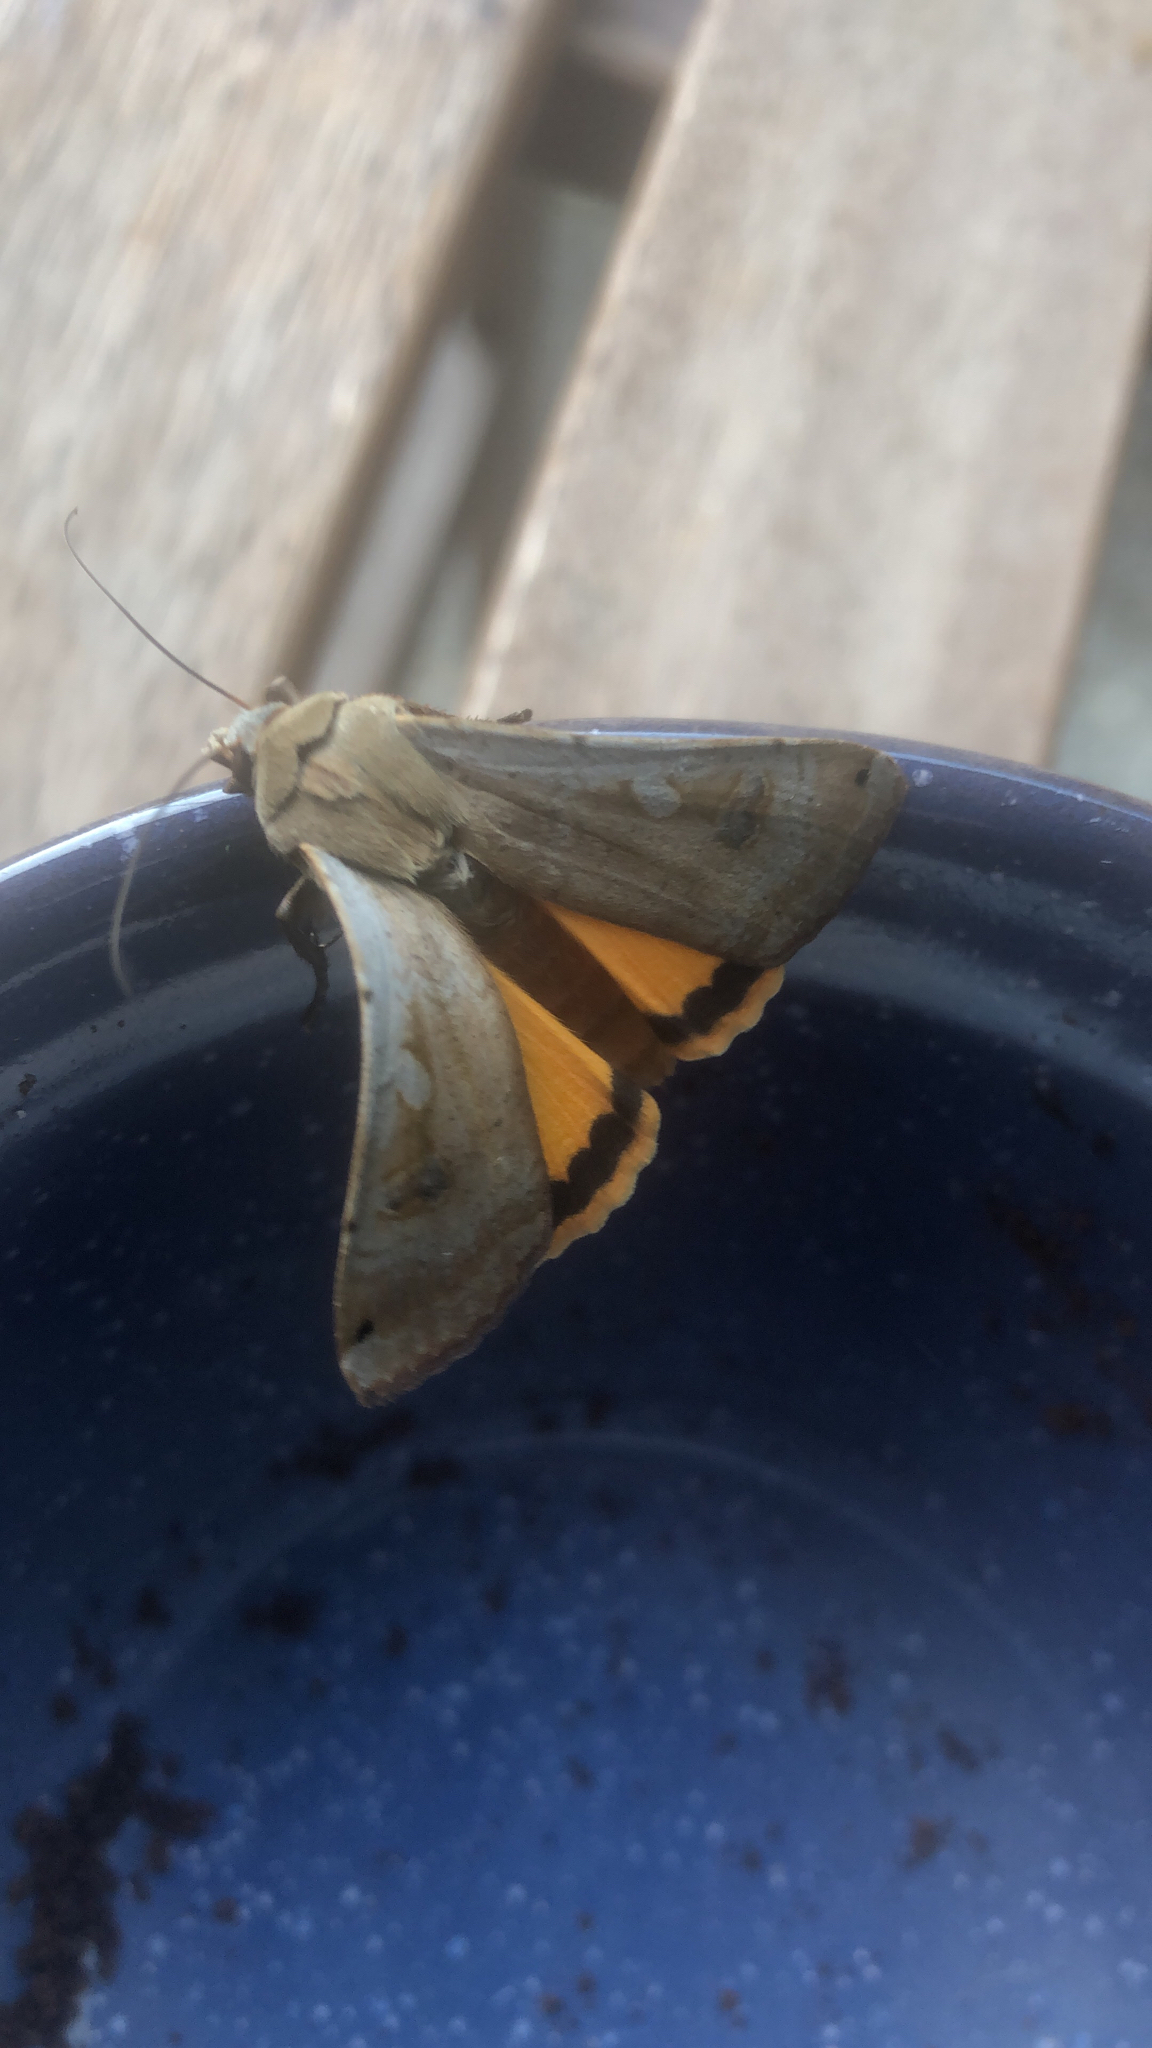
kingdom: Animalia
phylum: Arthropoda
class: Insecta
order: Lepidoptera
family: Noctuidae
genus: Noctua
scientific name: Noctua pronuba
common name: Large yellow underwing
